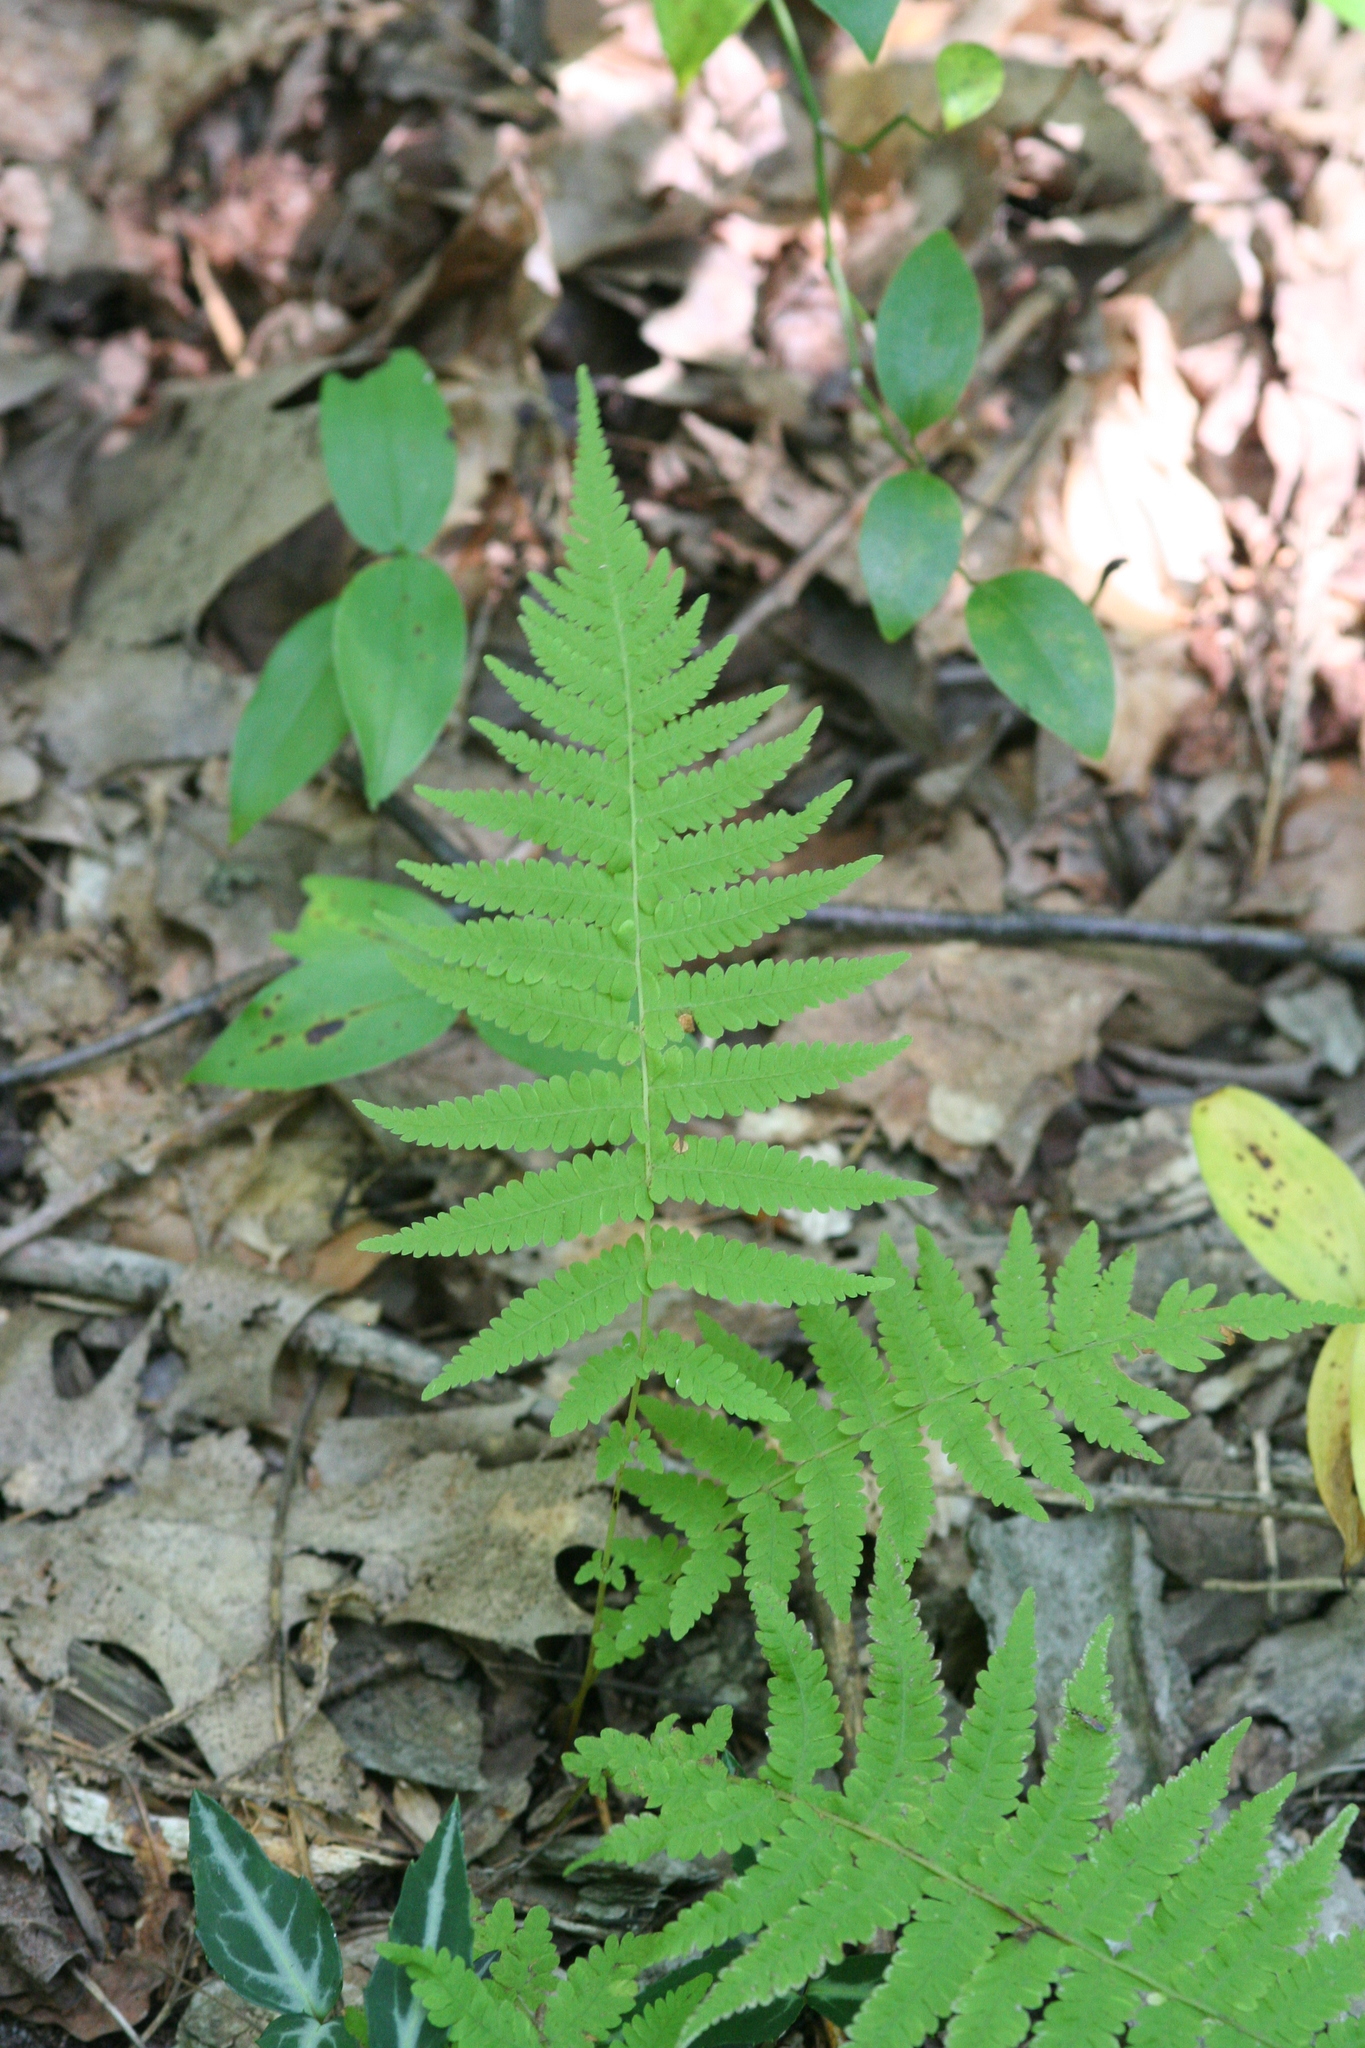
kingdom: Plantae
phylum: Tracheophyta
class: Polypodiopsida
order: Polypodiales
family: Thelypteridaceae
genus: Amauropelta
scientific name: Amauropelta noveboracensis
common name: New york fern
